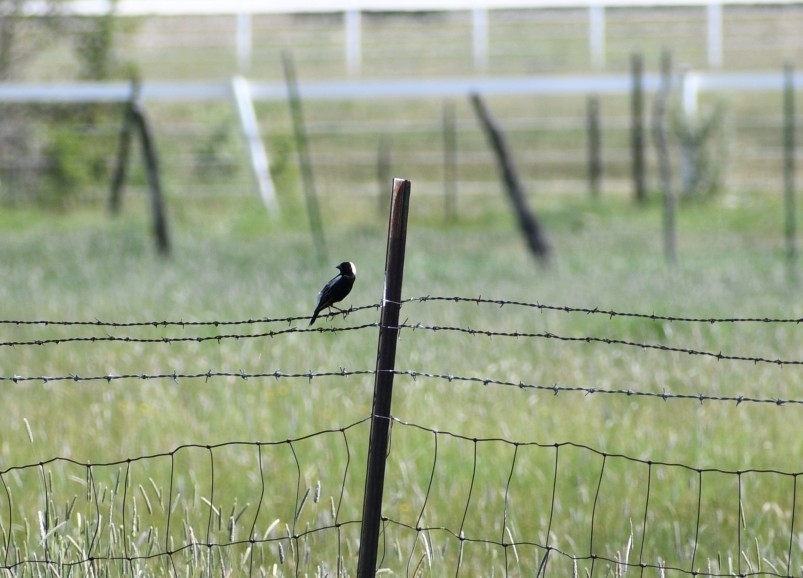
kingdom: Animalia
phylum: Chordata
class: Aves
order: Passeriformes
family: Icteridae
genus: Dolichonyx
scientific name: Dolichonyx oryzivorus
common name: Bobolink
